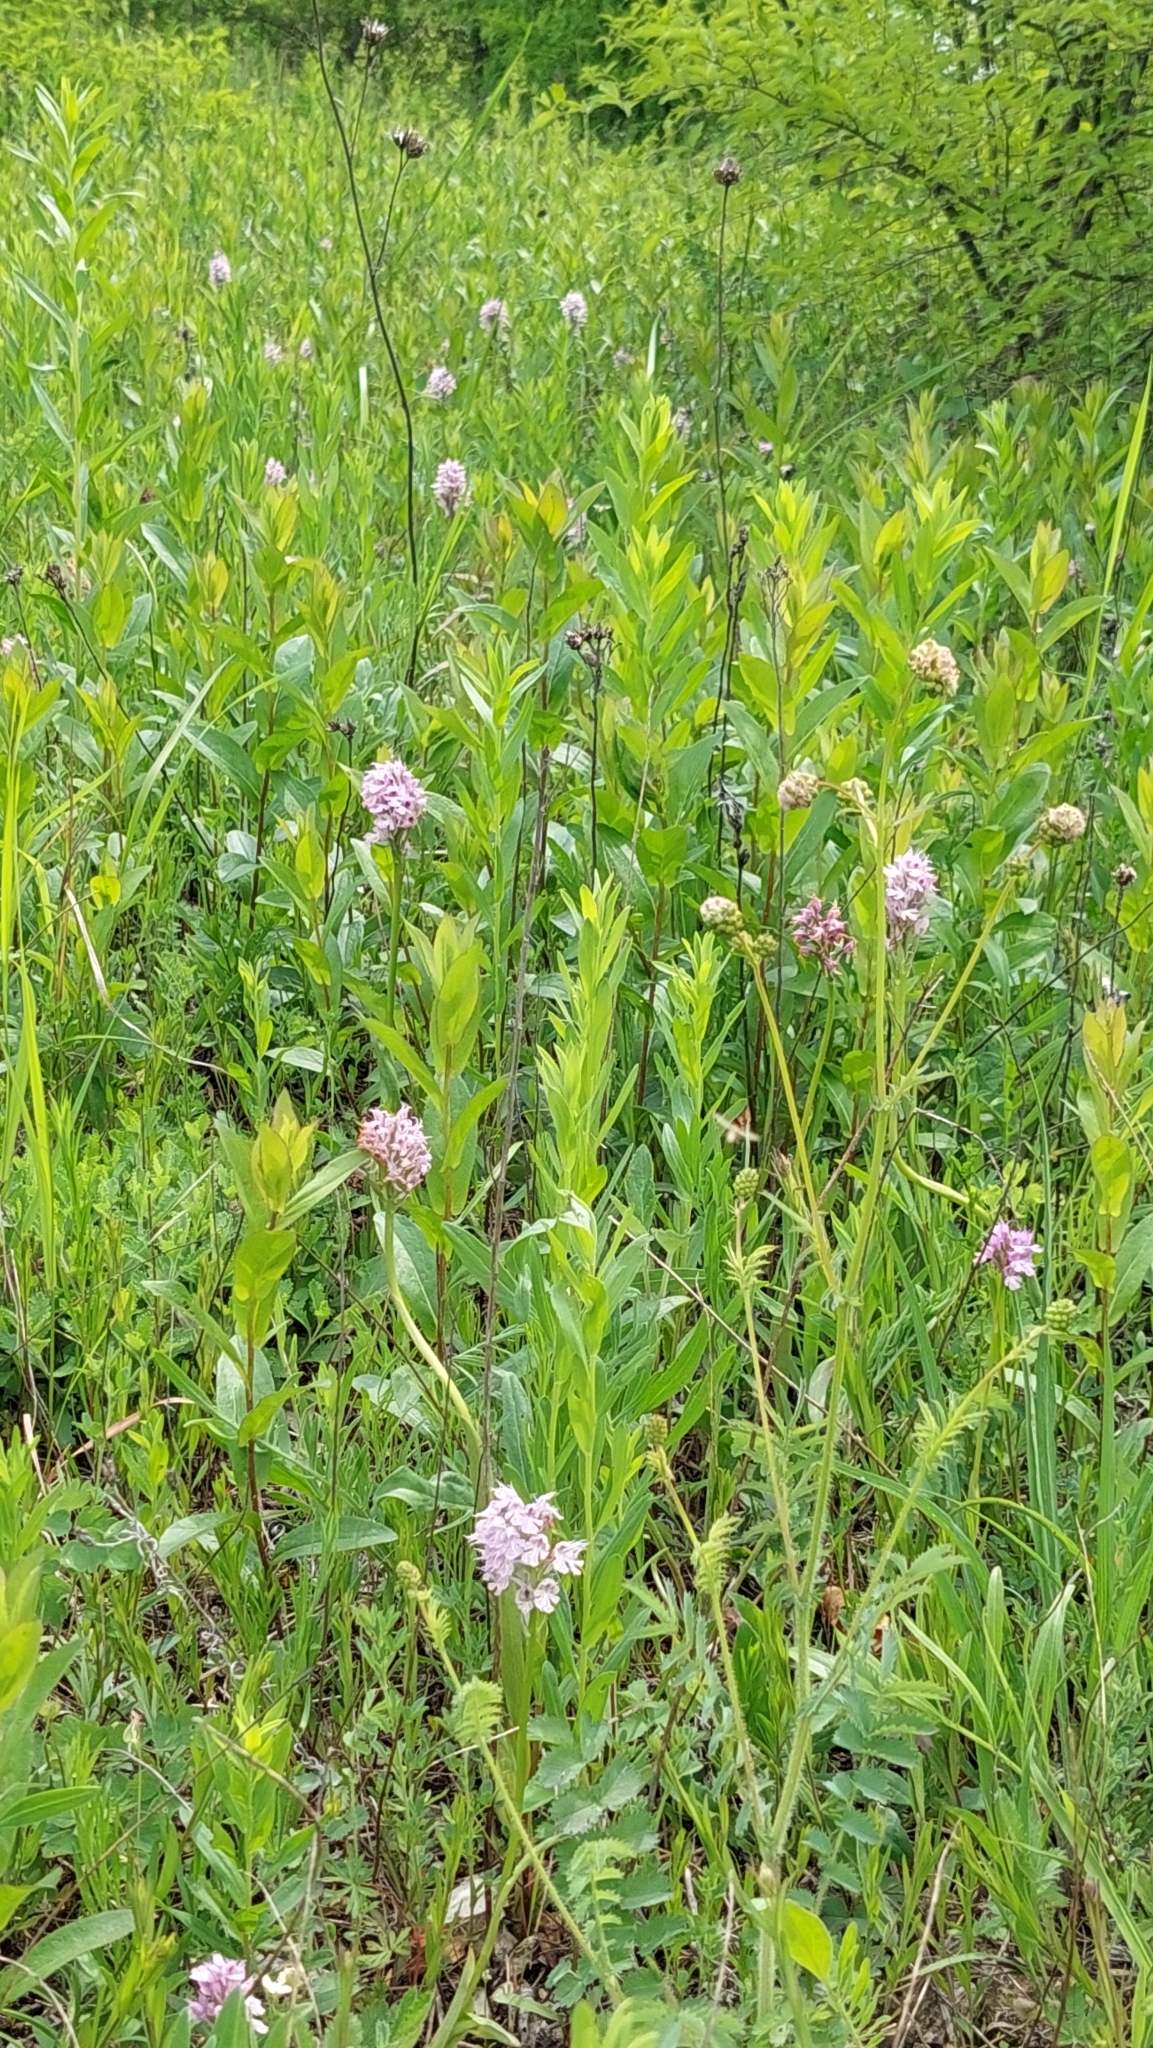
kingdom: Plantae
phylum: Tracheophyta
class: Liliopsida
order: Asparagales
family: Orchidaceae
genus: Neotinea
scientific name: Neotinea tridentata
